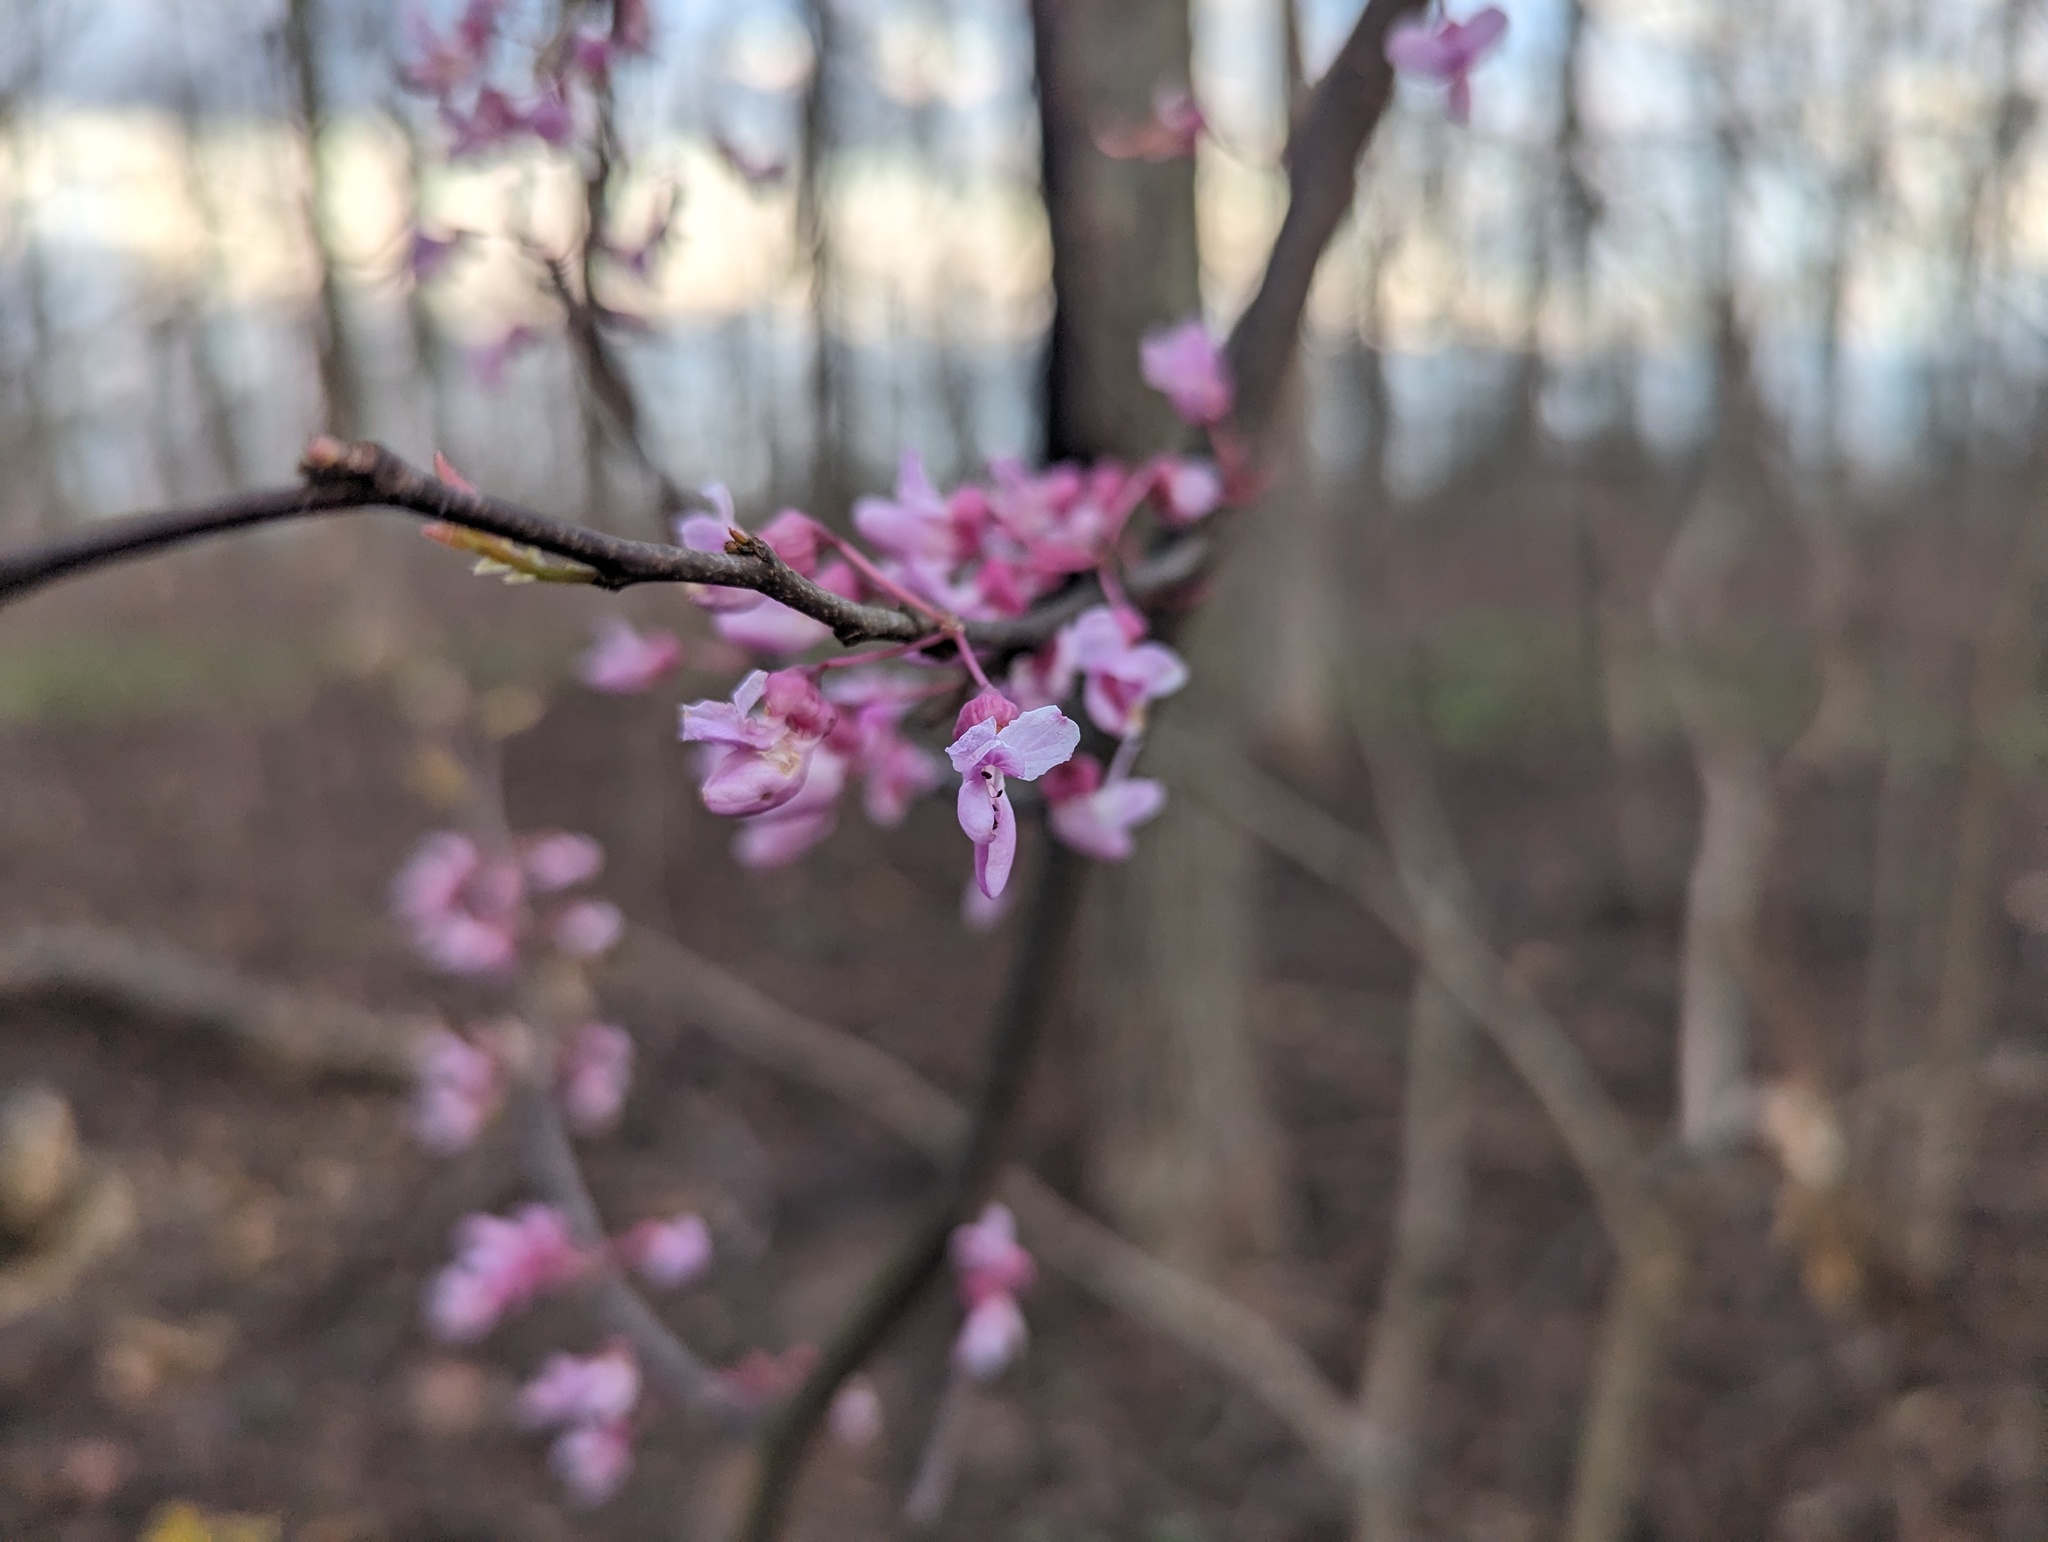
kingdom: Plantae
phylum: Tracheophyta
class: Magnoliopsida
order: Fabales
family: Fabaceae
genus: Cercis
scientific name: Cercis canadensis
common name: Eastern redbud
